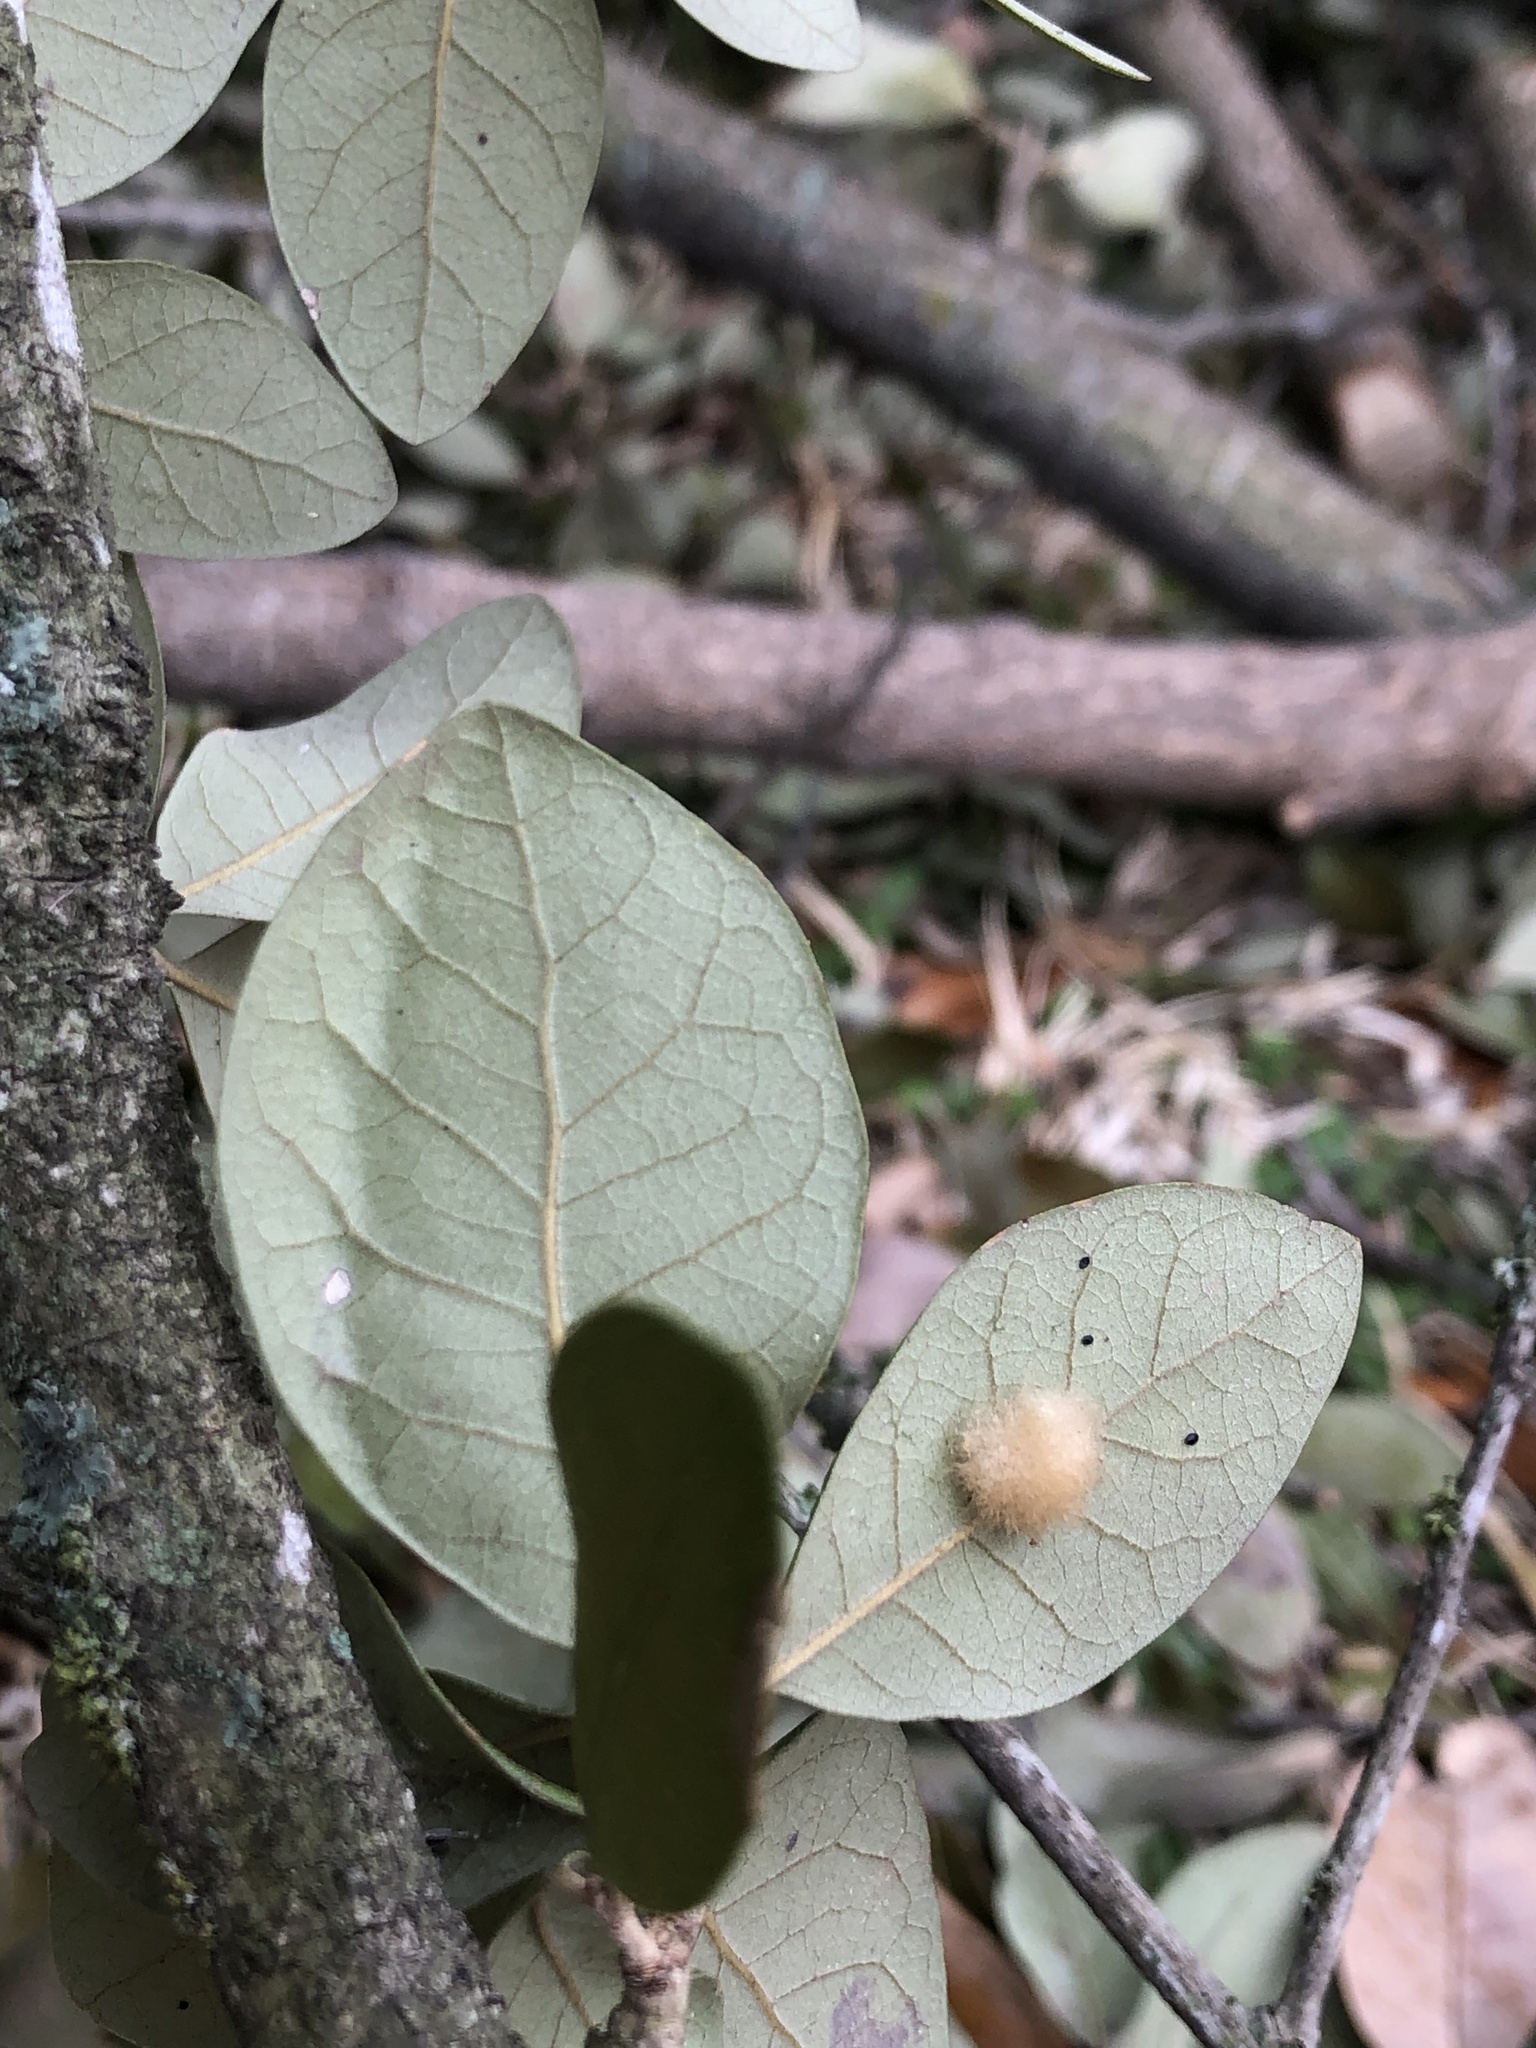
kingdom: Animalia
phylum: Arthropoda
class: Insecta
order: Hymenoptera
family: Cynipidae
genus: Andricus
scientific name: Andricus Druon quercuslanigerum
